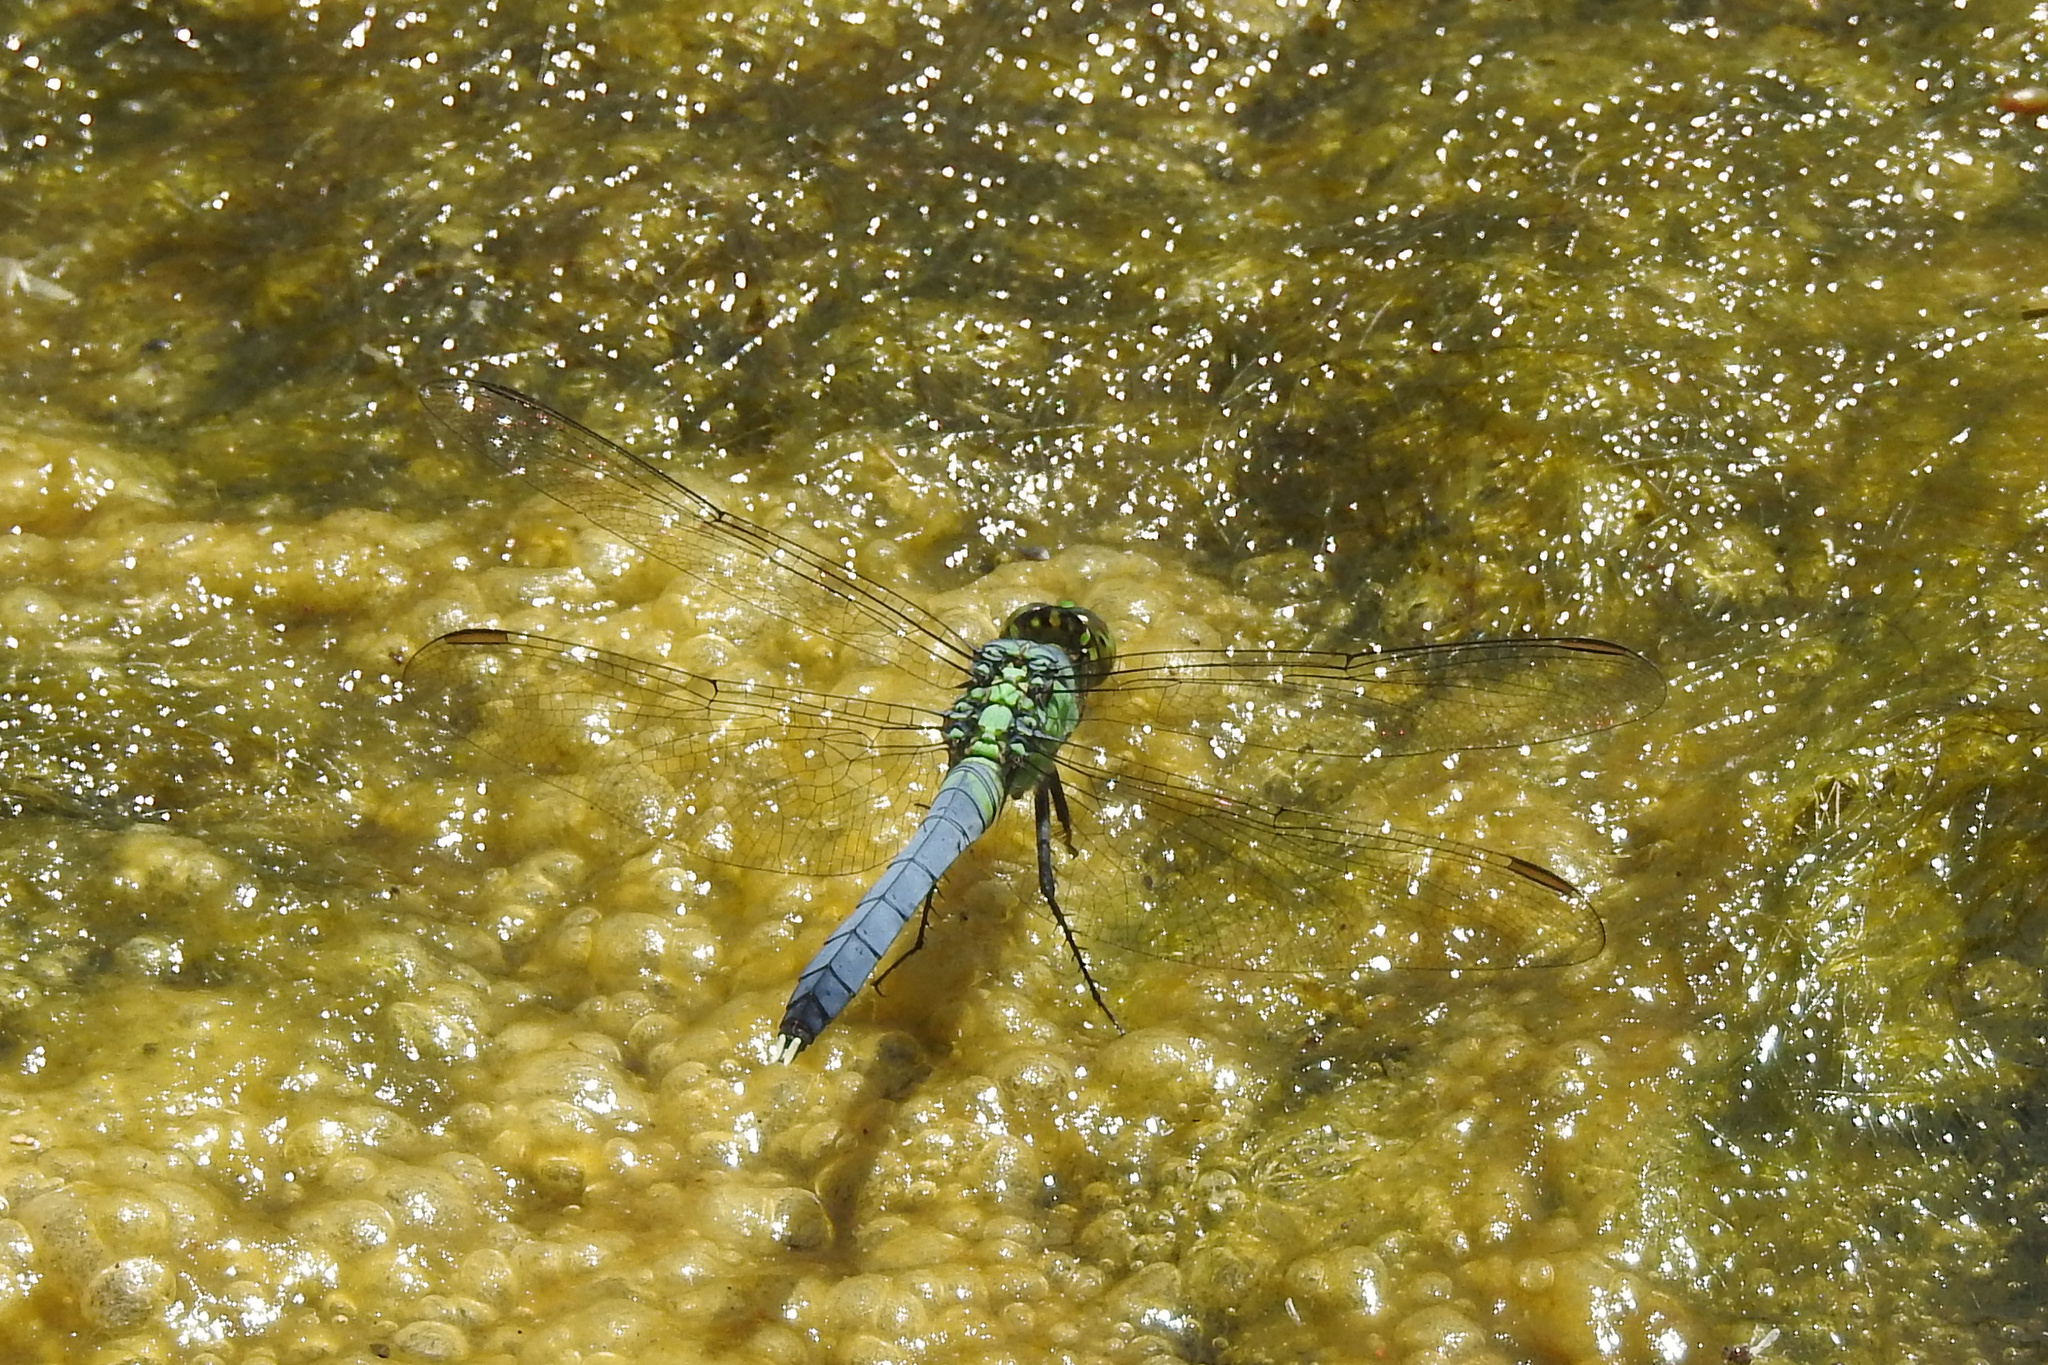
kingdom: Animalia
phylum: Arthropoda
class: Insecta
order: Odonata
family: Libellulidae
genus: Erythemis
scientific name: Erythemis simplicicollis
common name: Eastern pondhawk
